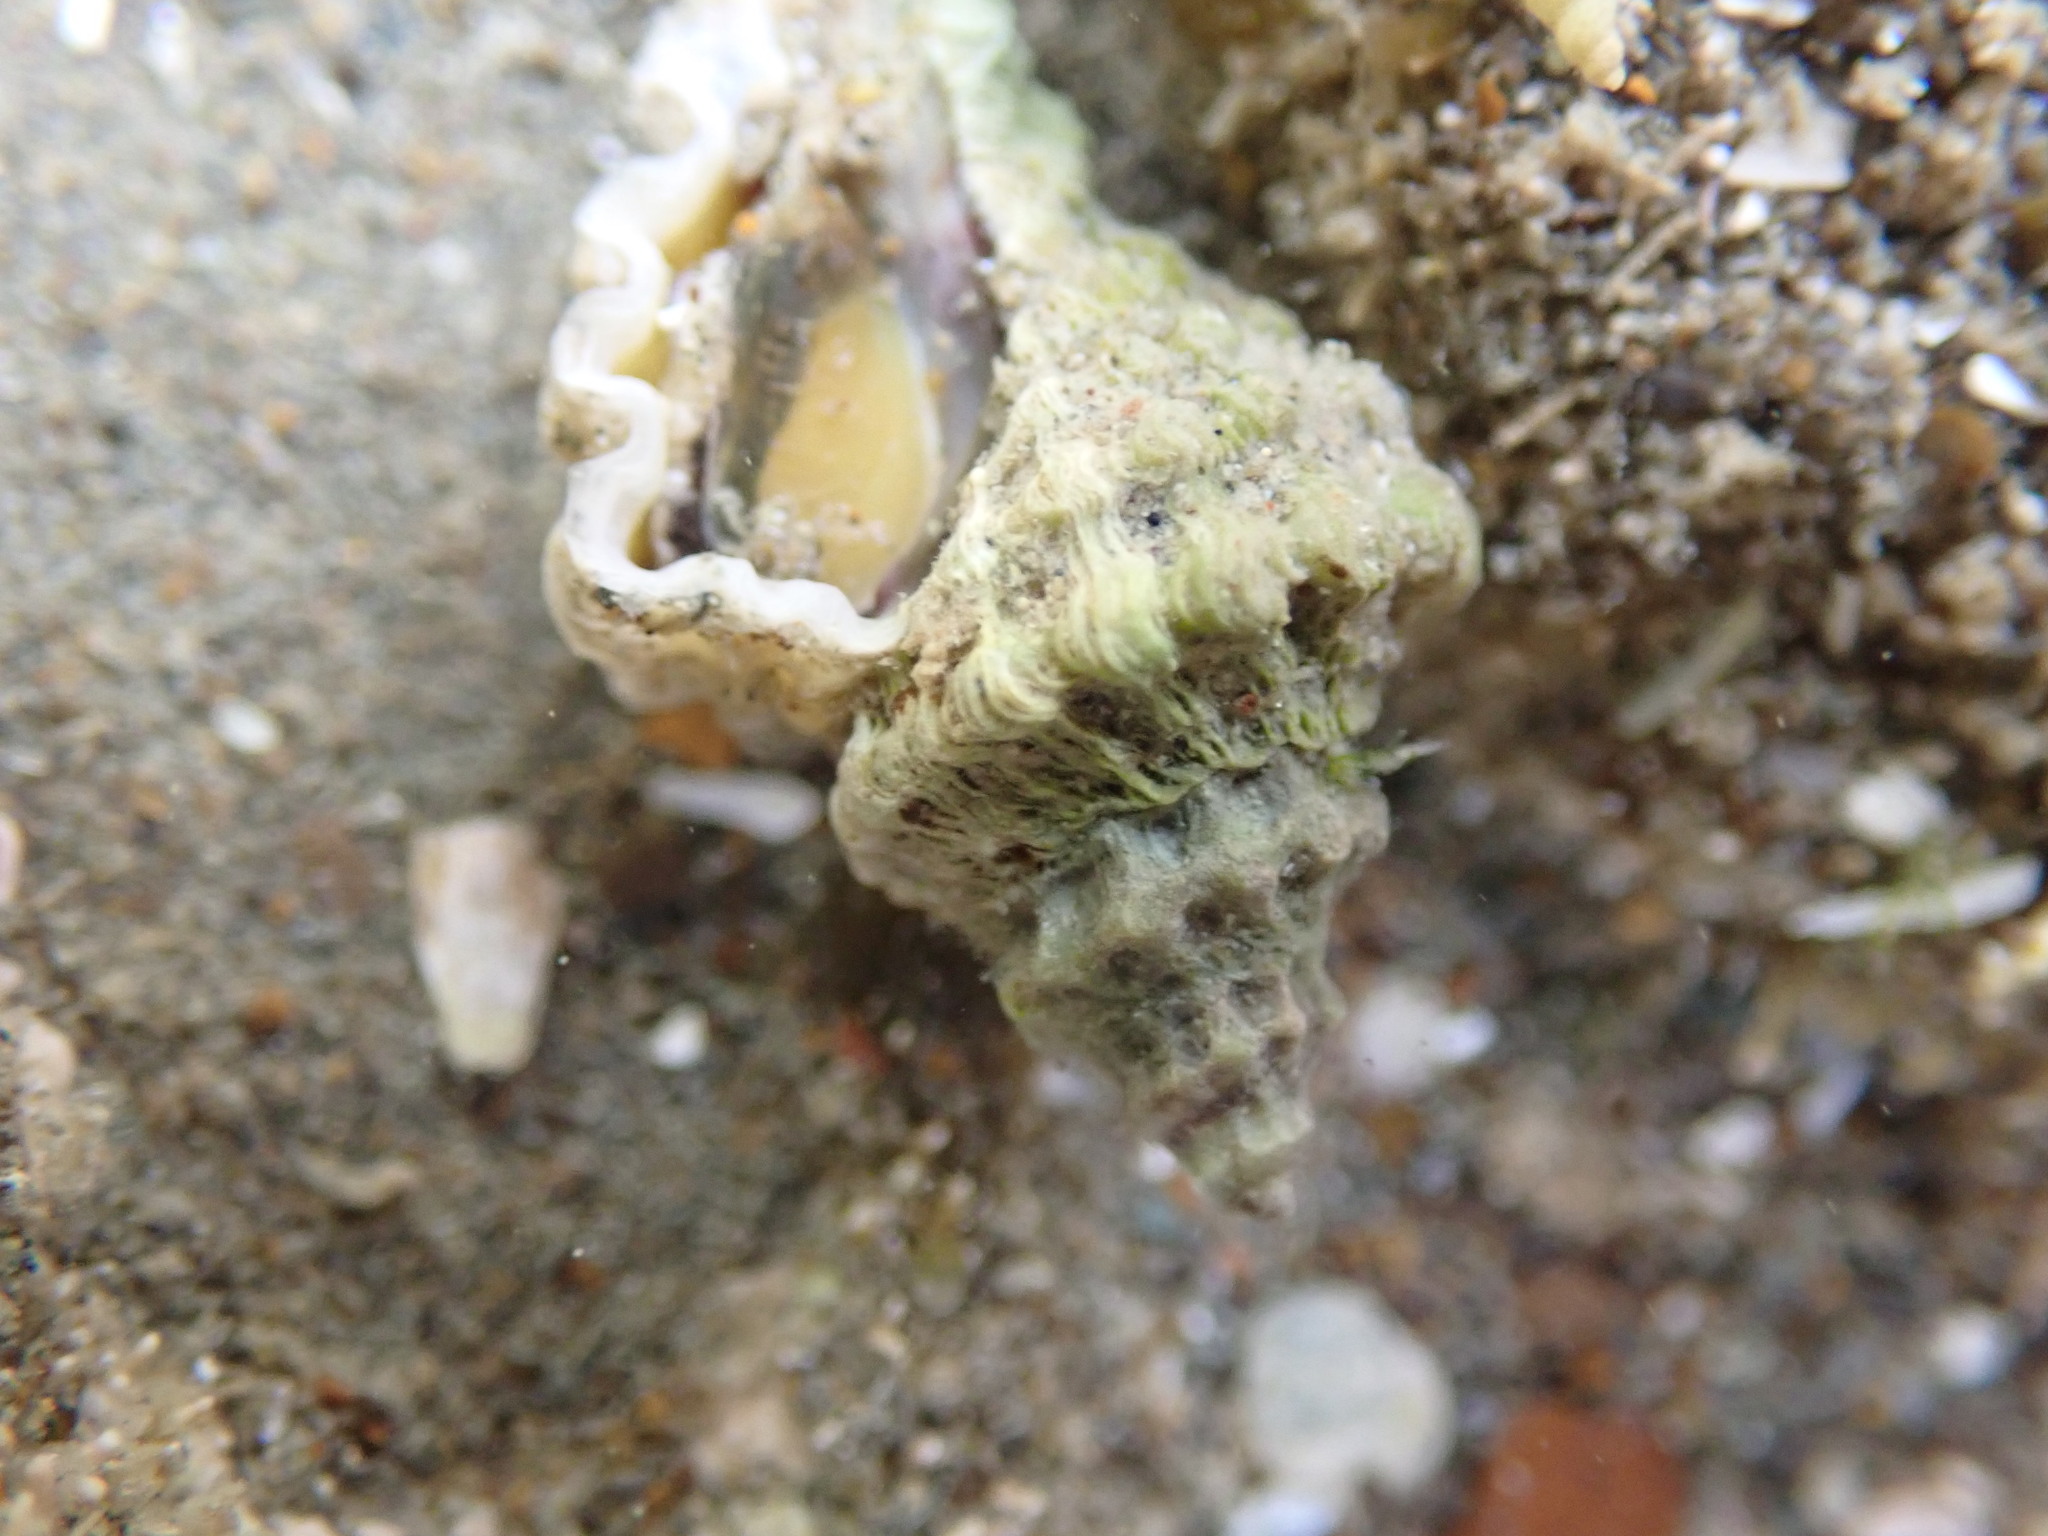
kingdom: Animalia
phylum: Mollusca
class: Gastropoda
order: Neogastropoda
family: Muricidae
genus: Paratrophon
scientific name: Paratrophon quoyi
